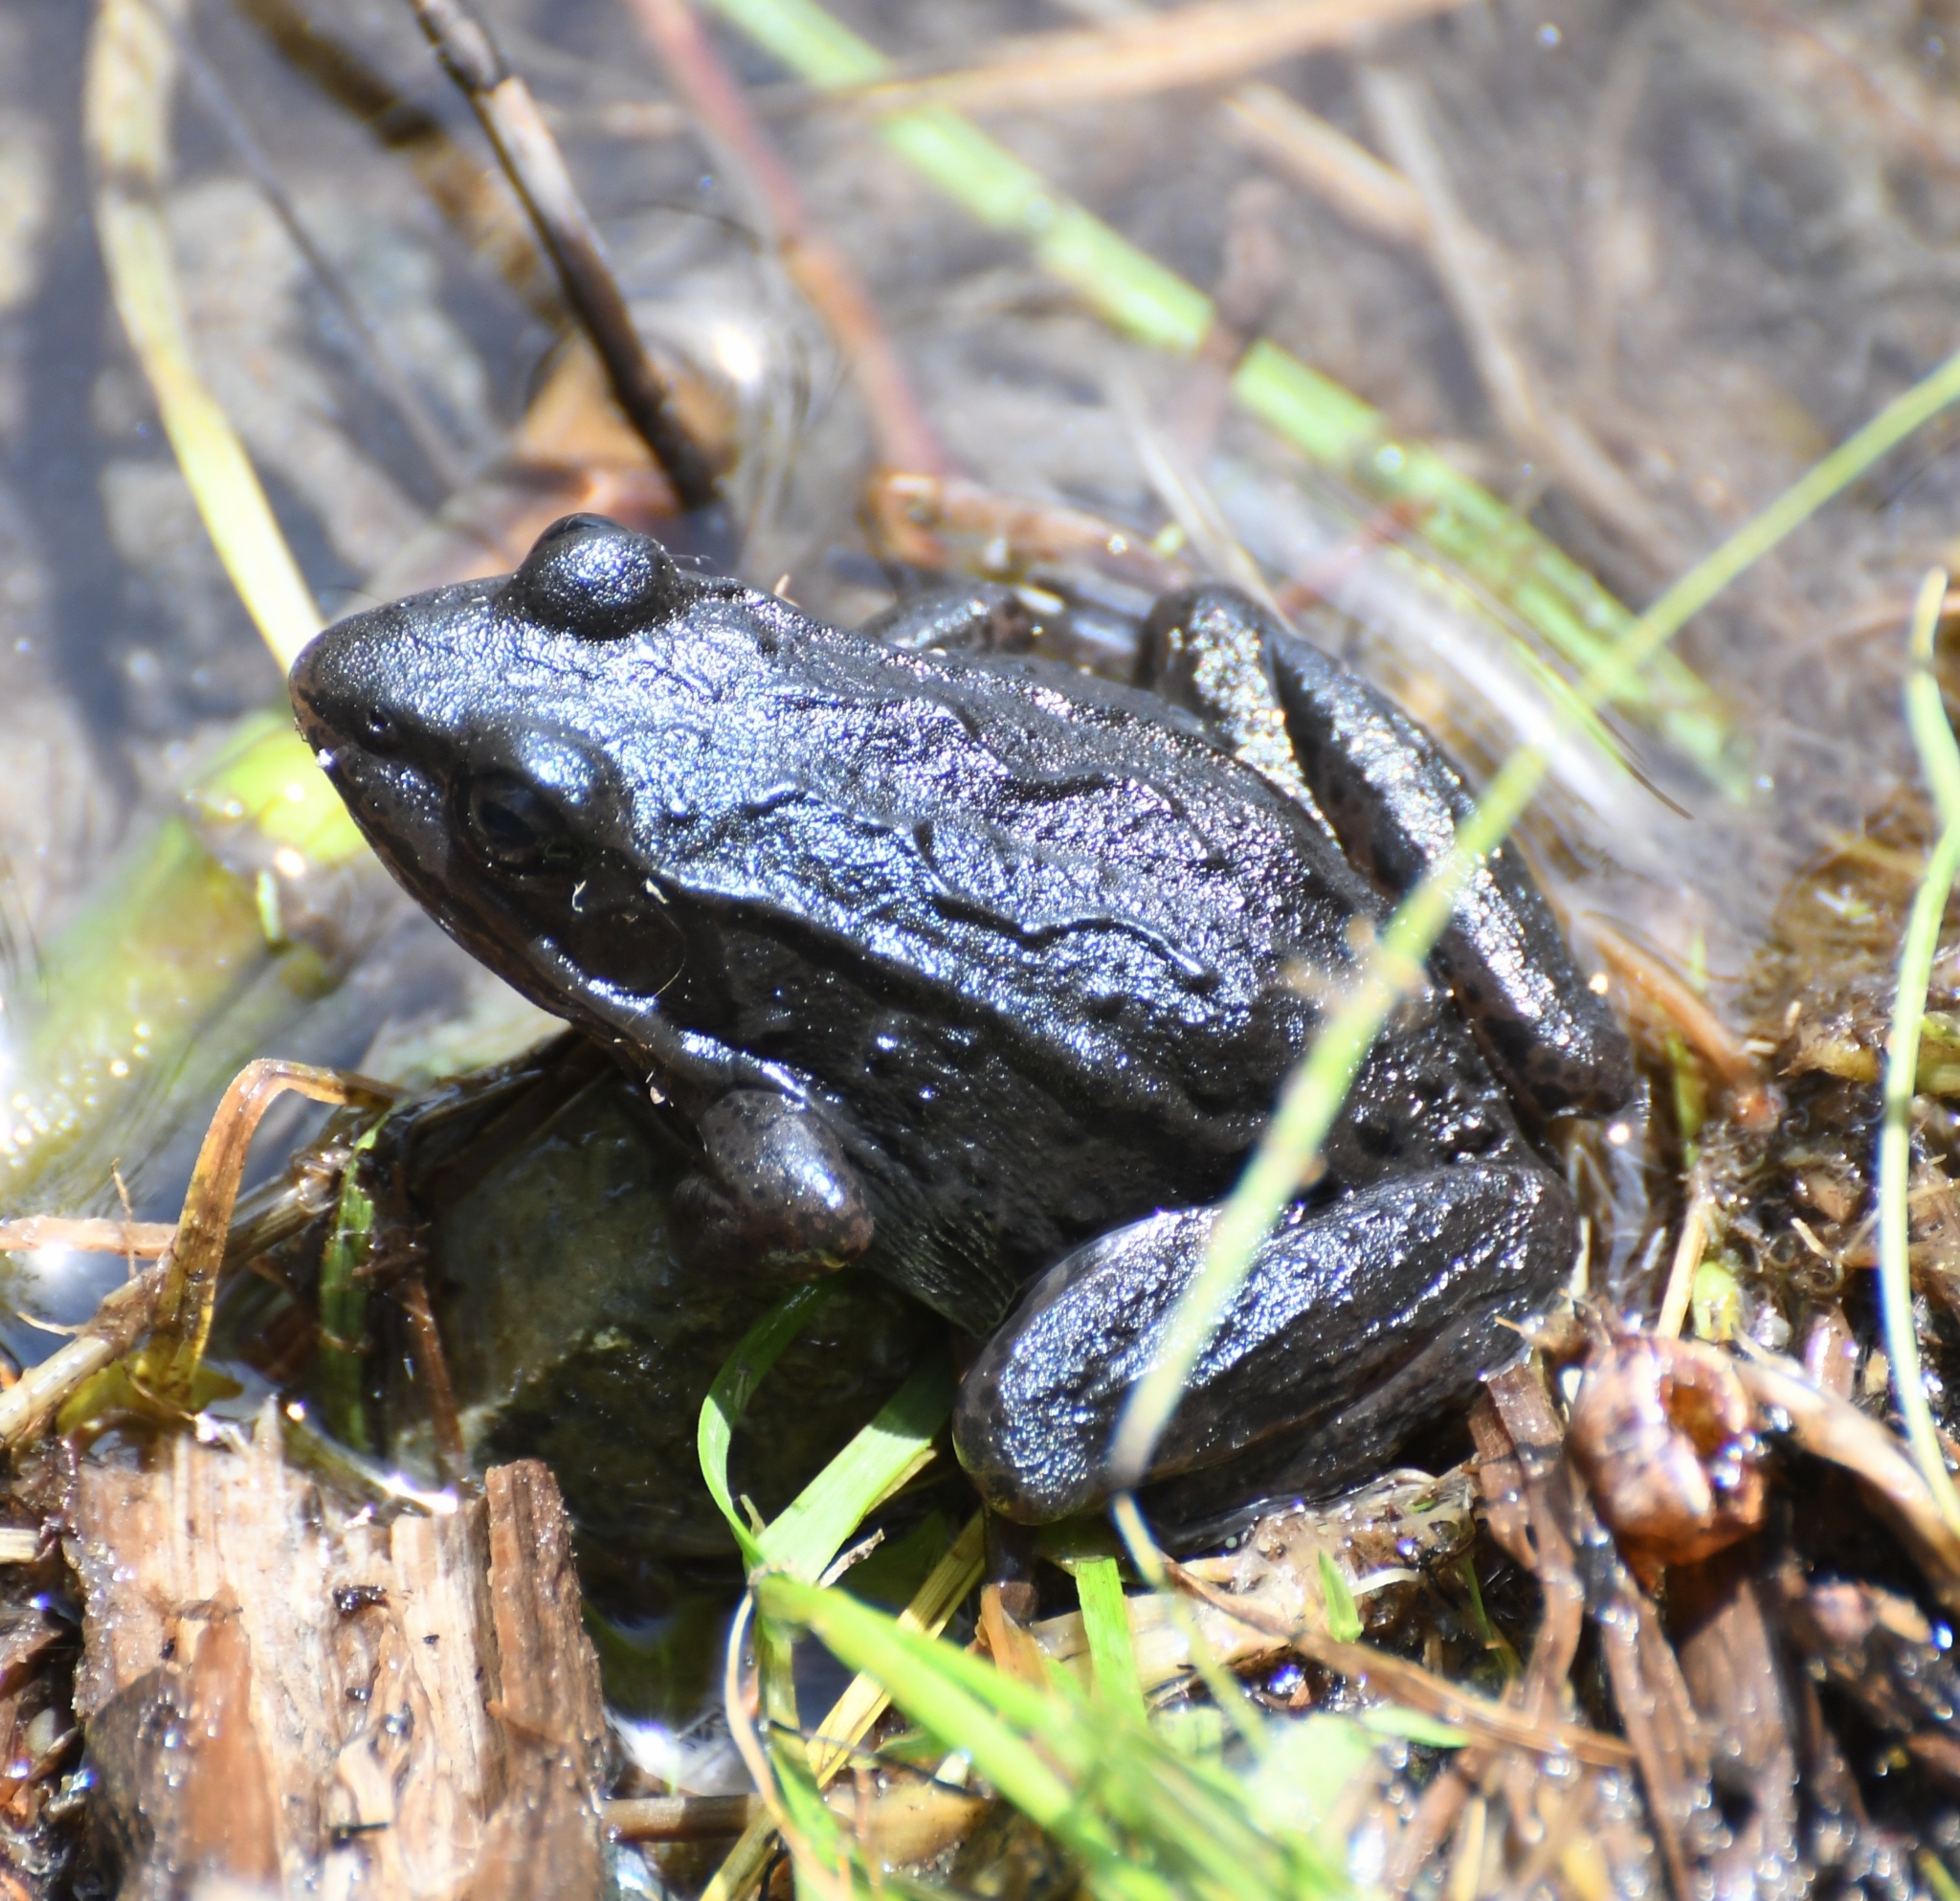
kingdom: Animalia
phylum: Chordata
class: Amphibia
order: Anura
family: Ranidae
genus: Rana
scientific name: Rana luteiventris
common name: Columbia spotted frog
